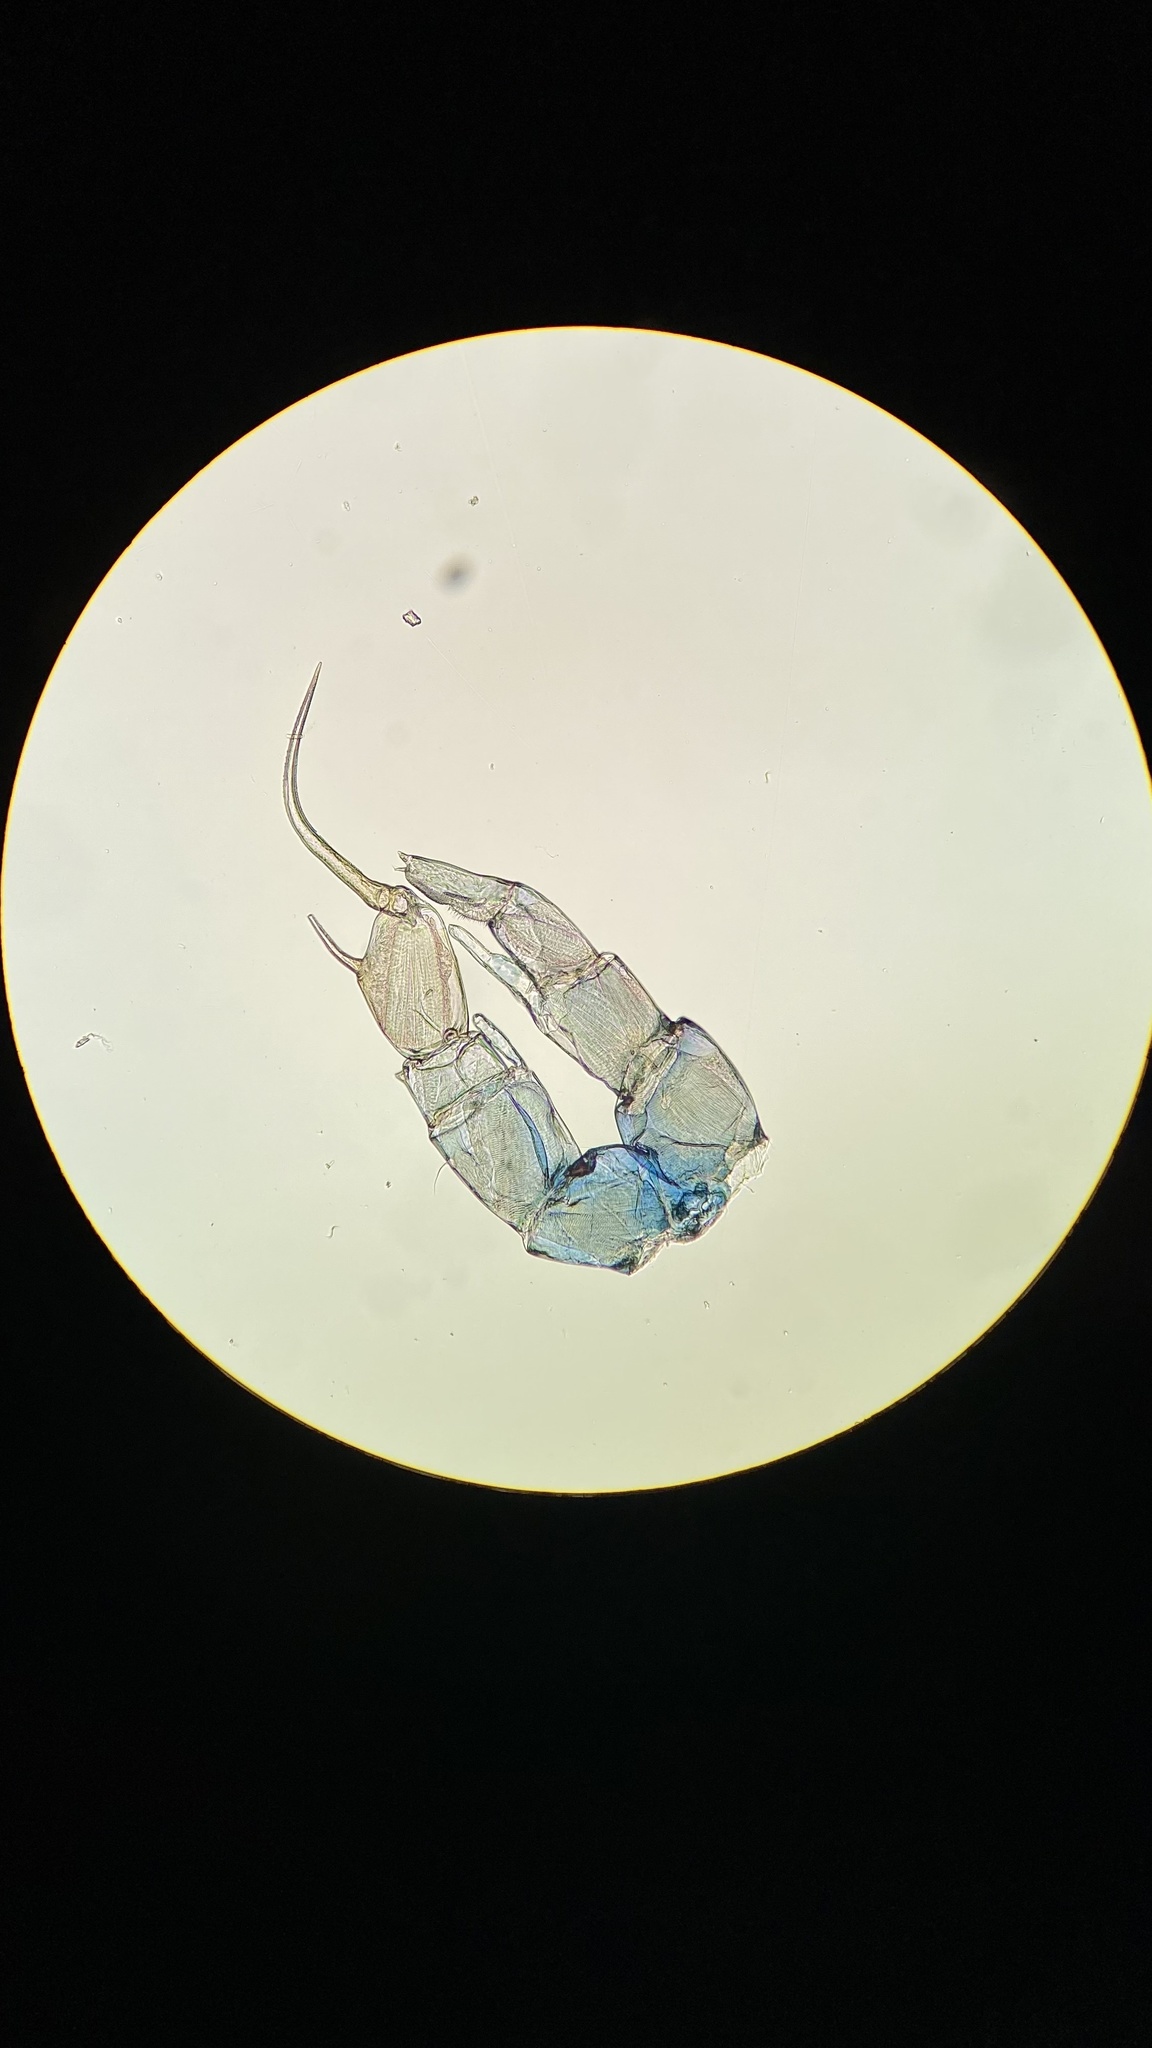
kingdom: Animalia
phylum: Arthropoda
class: Copepoda
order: Calanoida
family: Diaptomidae
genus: Gigantodiaptomus
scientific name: Gigantodiaptomus amblyodon
